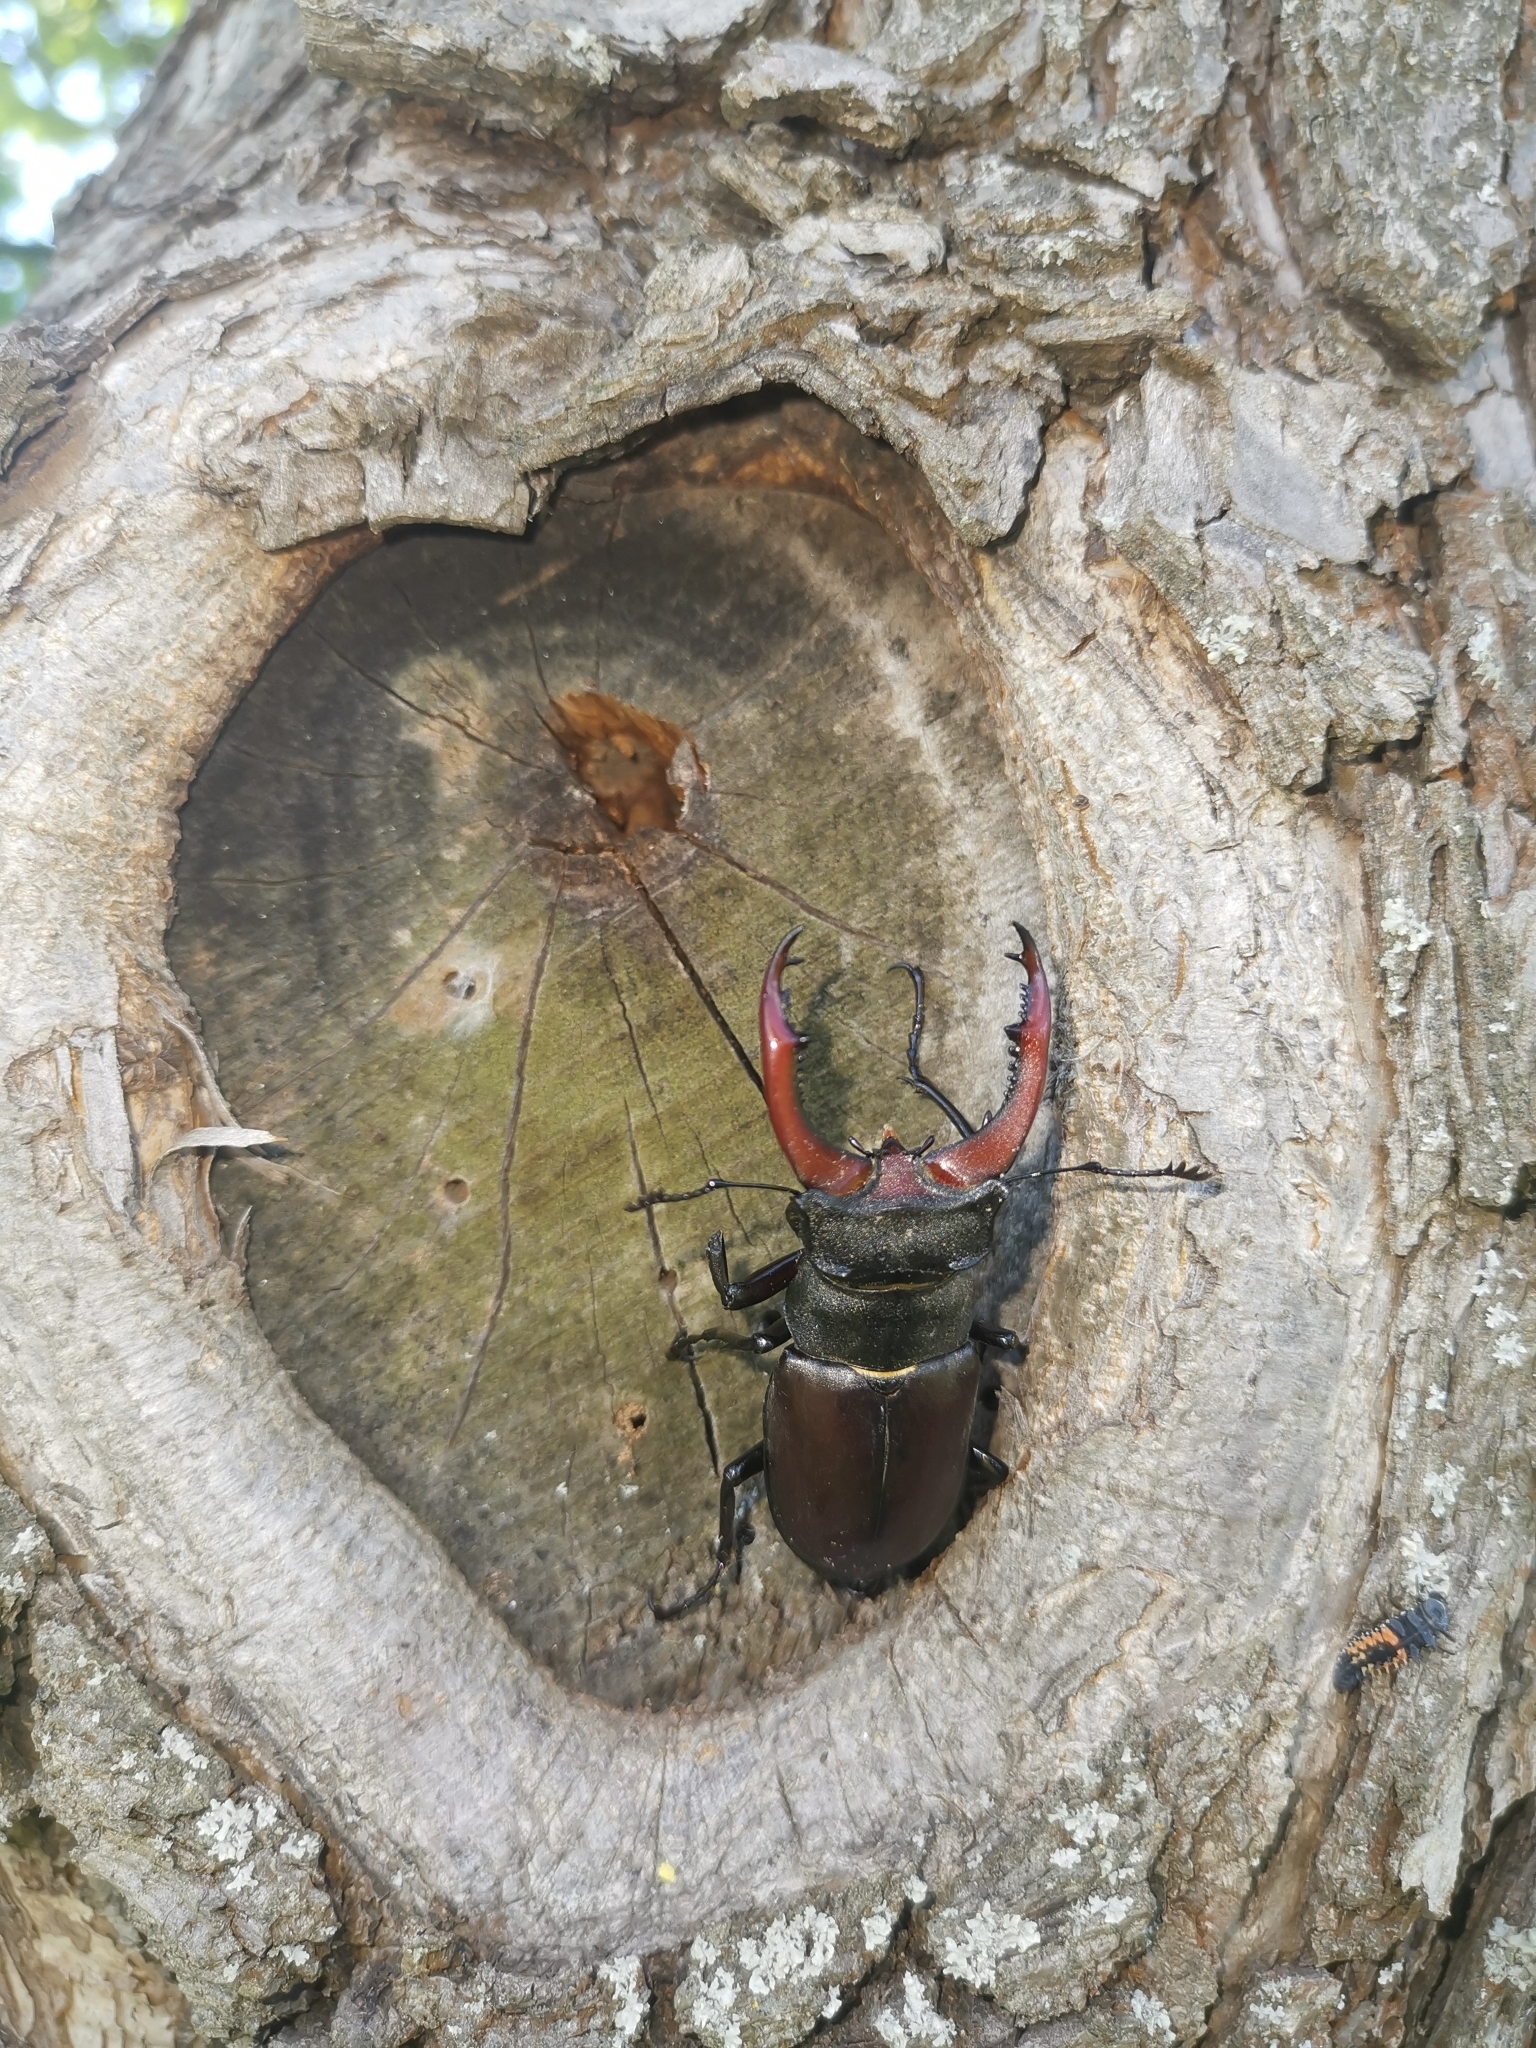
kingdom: Animalia
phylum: Arthropoda
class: Insecta
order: Coleoptera
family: Lucanidae
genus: Lucanus
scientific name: Lucanus cervus
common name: Stag beetle
